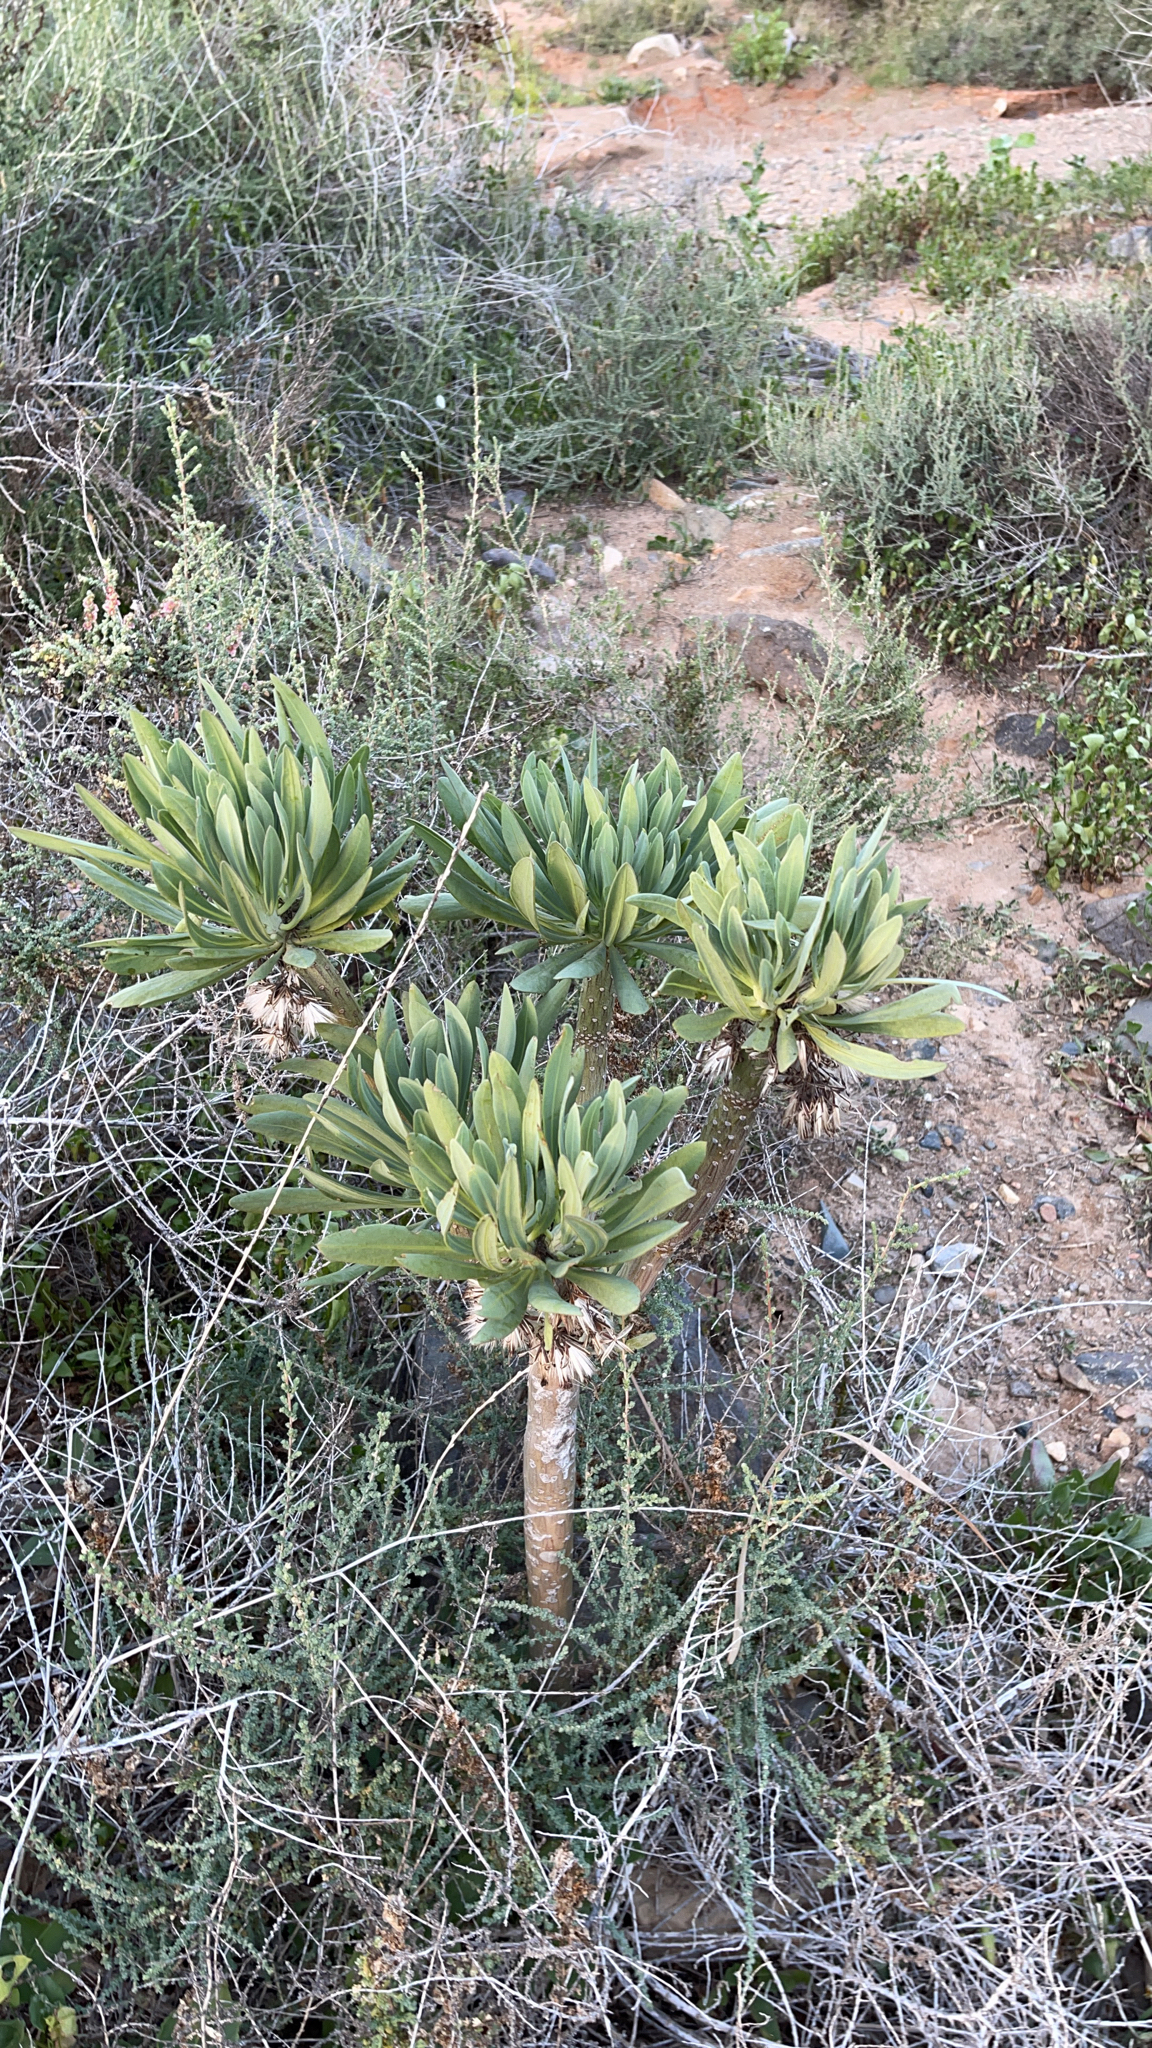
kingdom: Plantae
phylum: Tracheophyta
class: Magnoliopsida
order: Asterales
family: Asteraceae
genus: Kleinia
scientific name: Kleinia neriifolia
